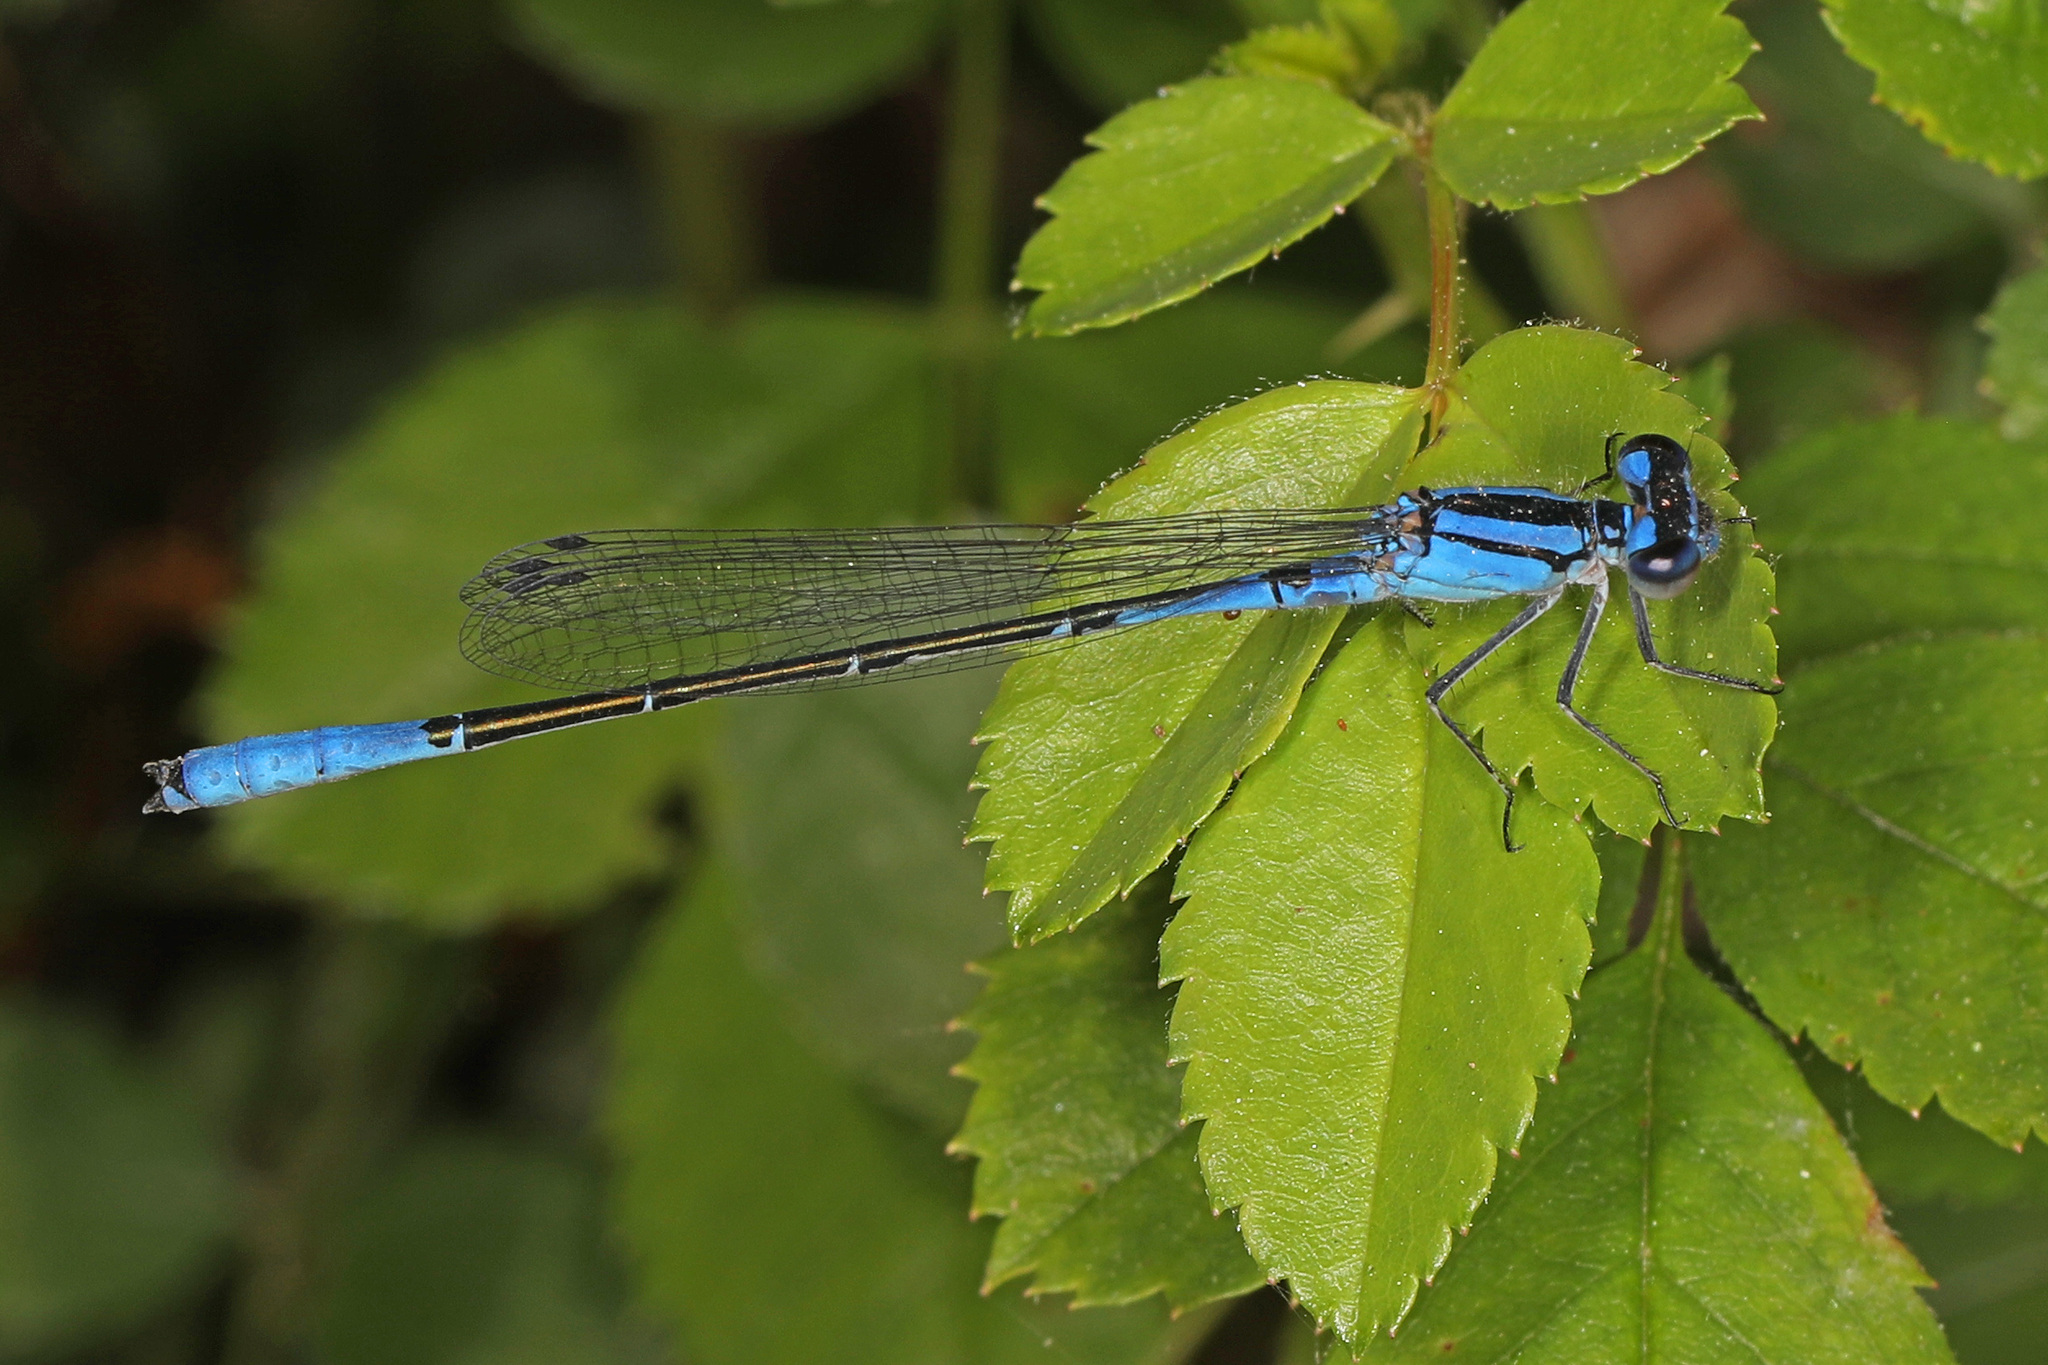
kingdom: Animalia
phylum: Arthropoda
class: Insecta
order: Odonata
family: Coenagrionidae
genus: Enallagma
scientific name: Enallagma aspersum
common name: Azure bluet
